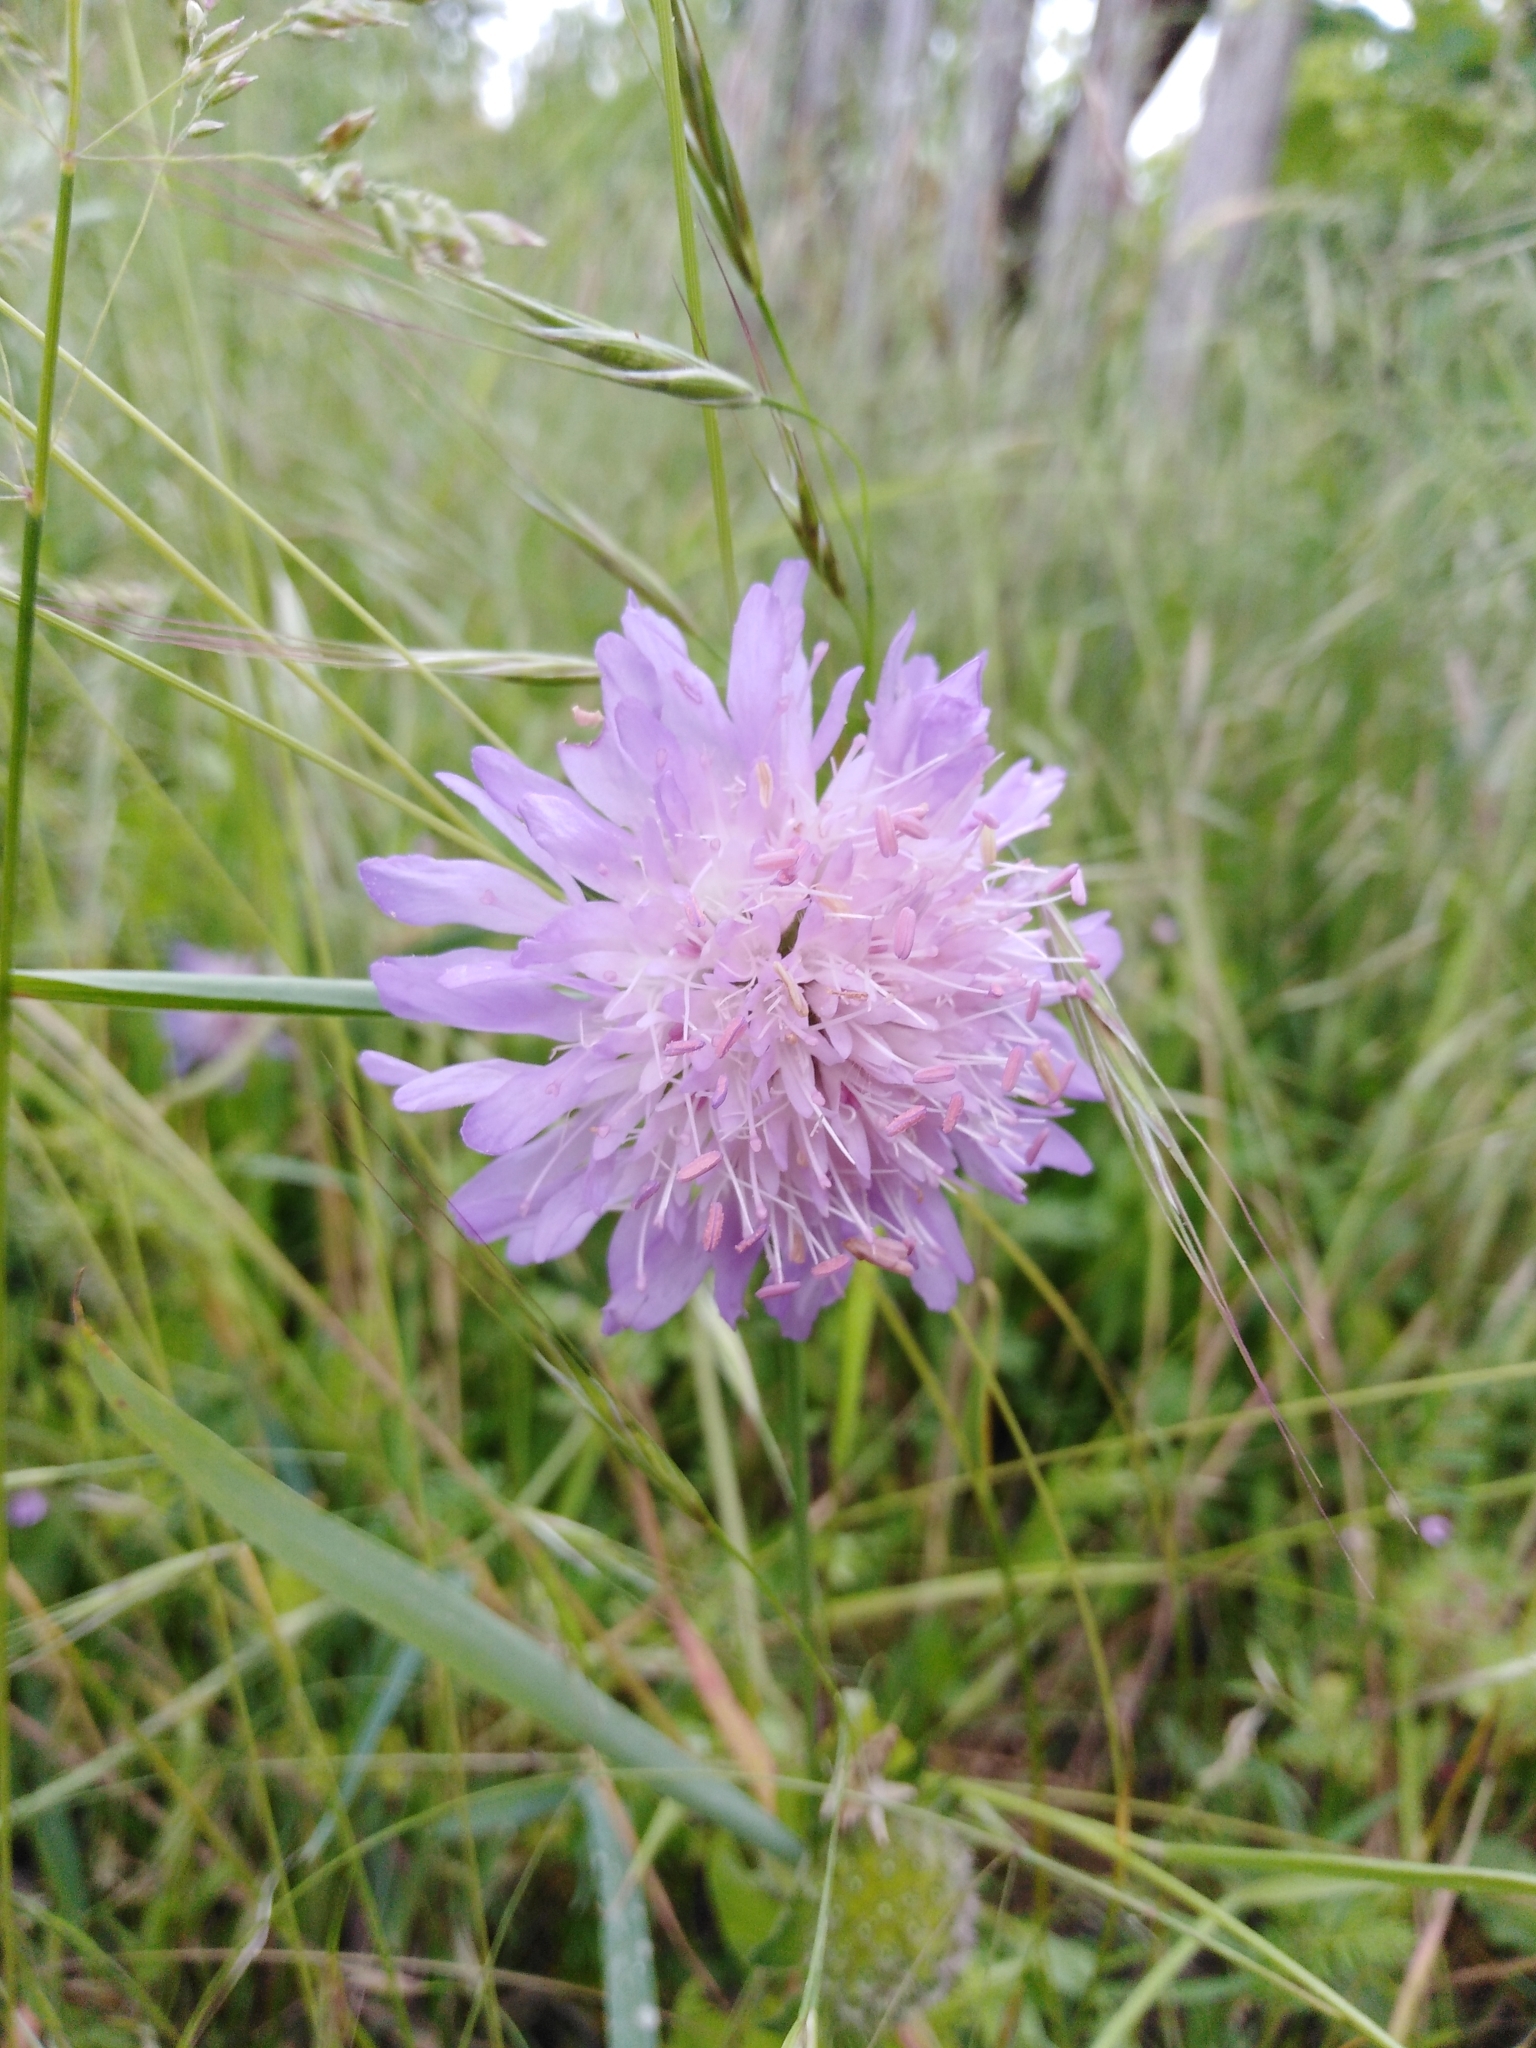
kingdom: Plantae
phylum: Tracheophyta
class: Magnoliopsida
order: Dipsacales
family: Caprifoliaceae
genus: Knautia
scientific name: Knautia arvensis
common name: Field scabiosa
